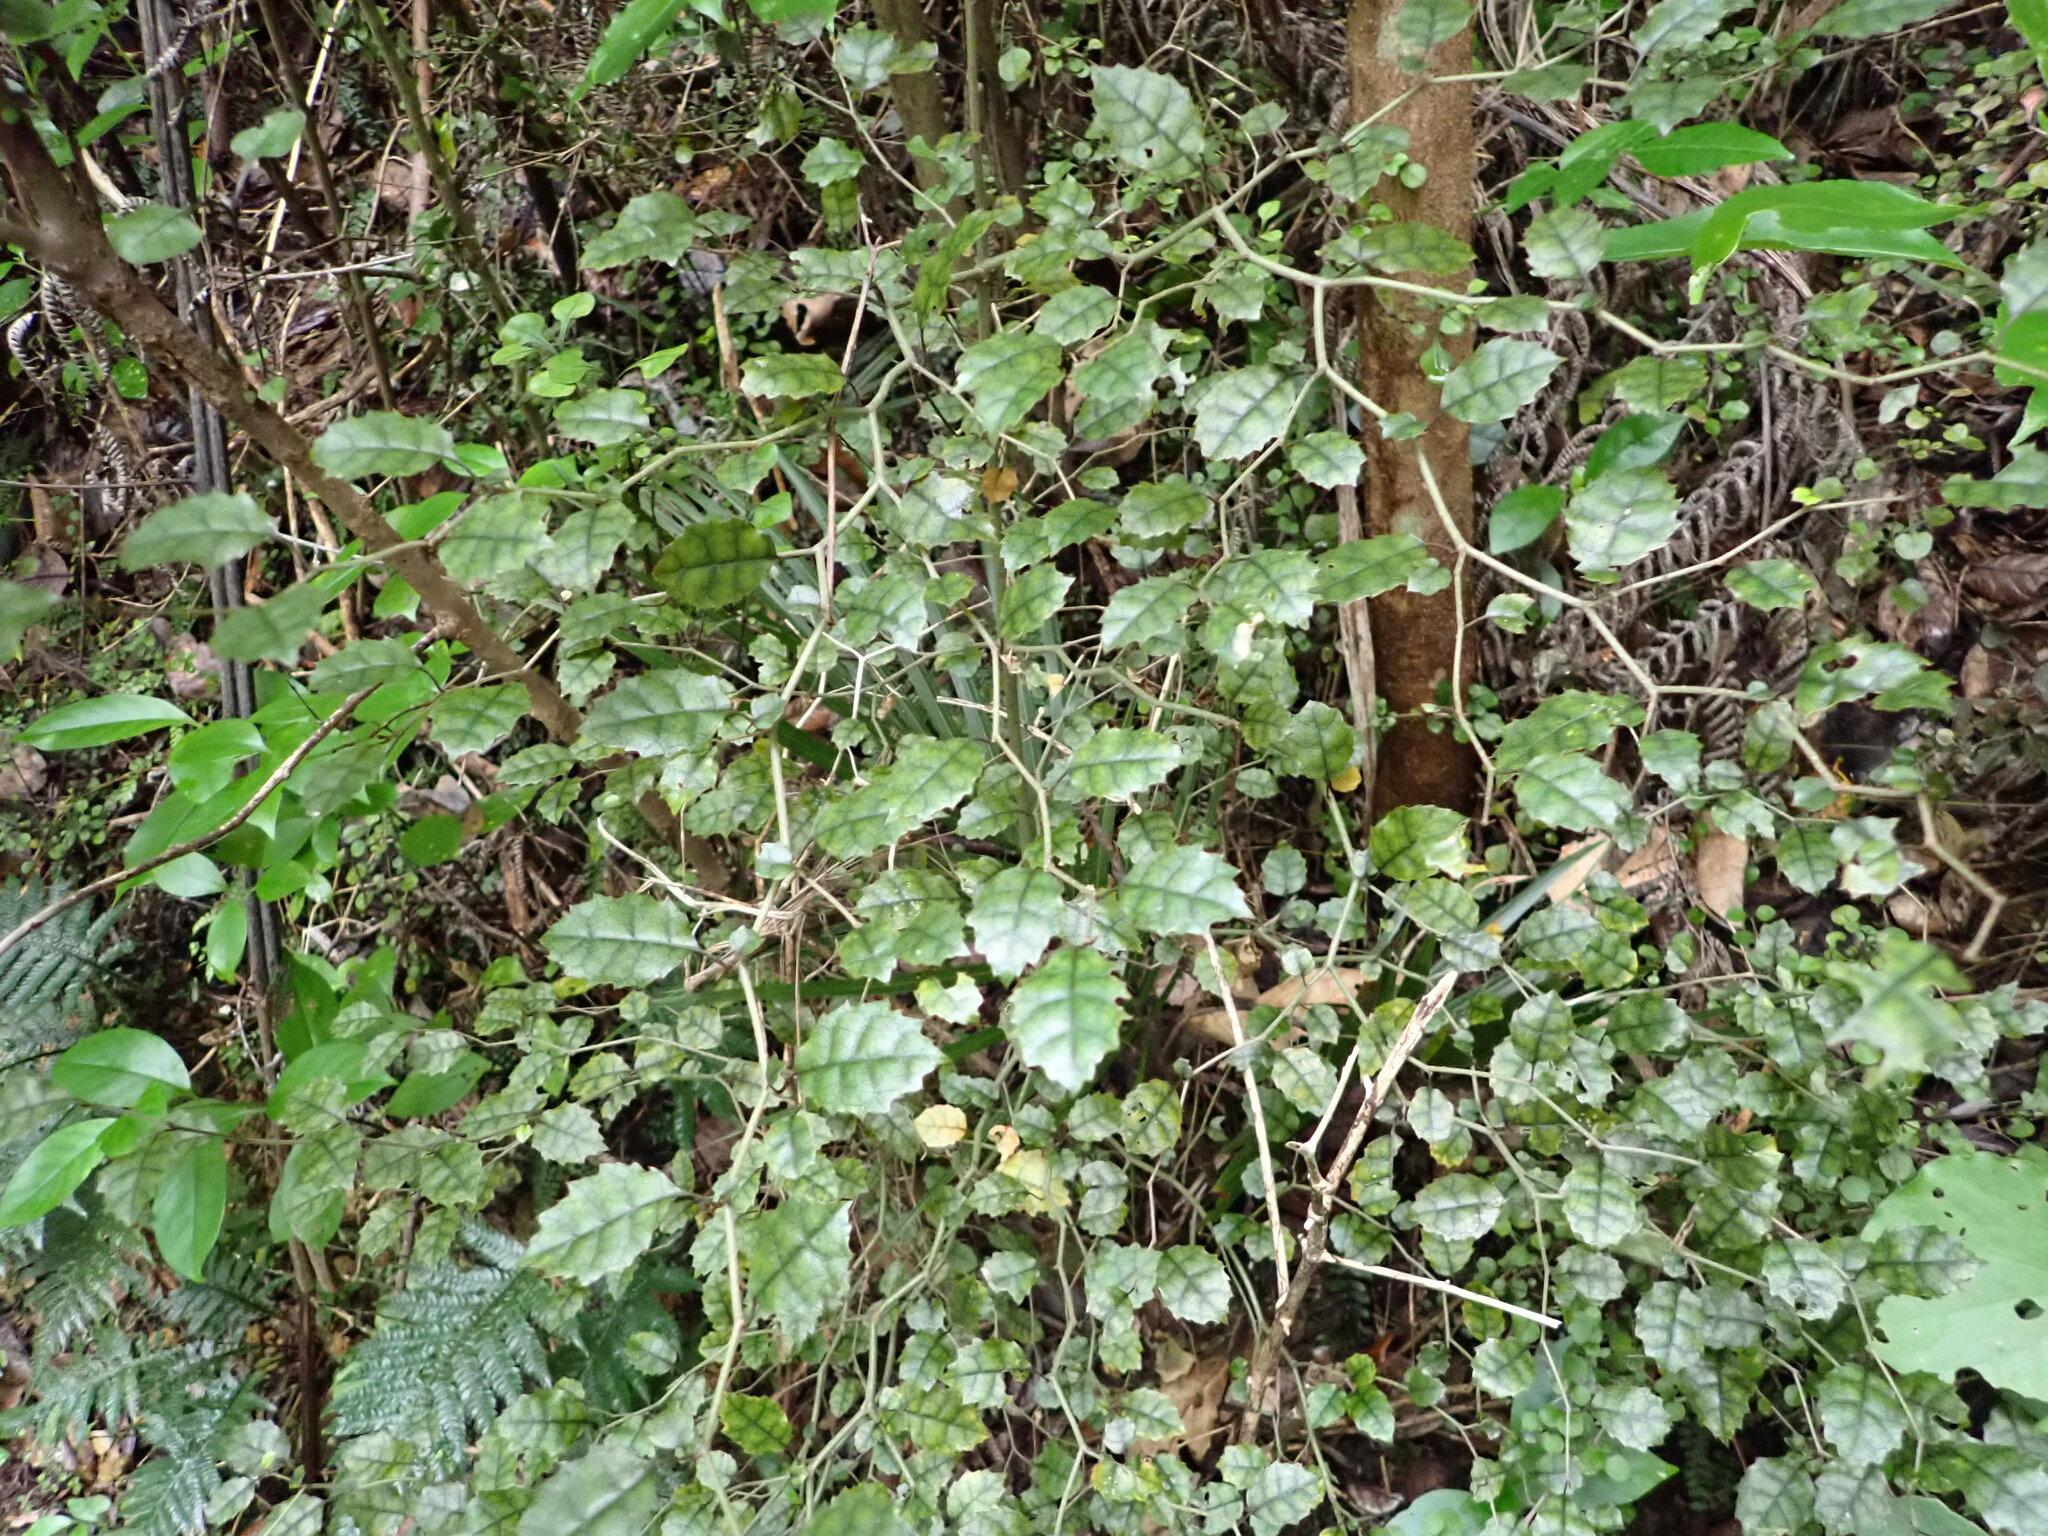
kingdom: Plantae
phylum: Tracheophyta
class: Magnoliopsida
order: Asterales
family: Rousseaceae
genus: Carpodetus
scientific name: Carpodetus serratus
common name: White mapau
